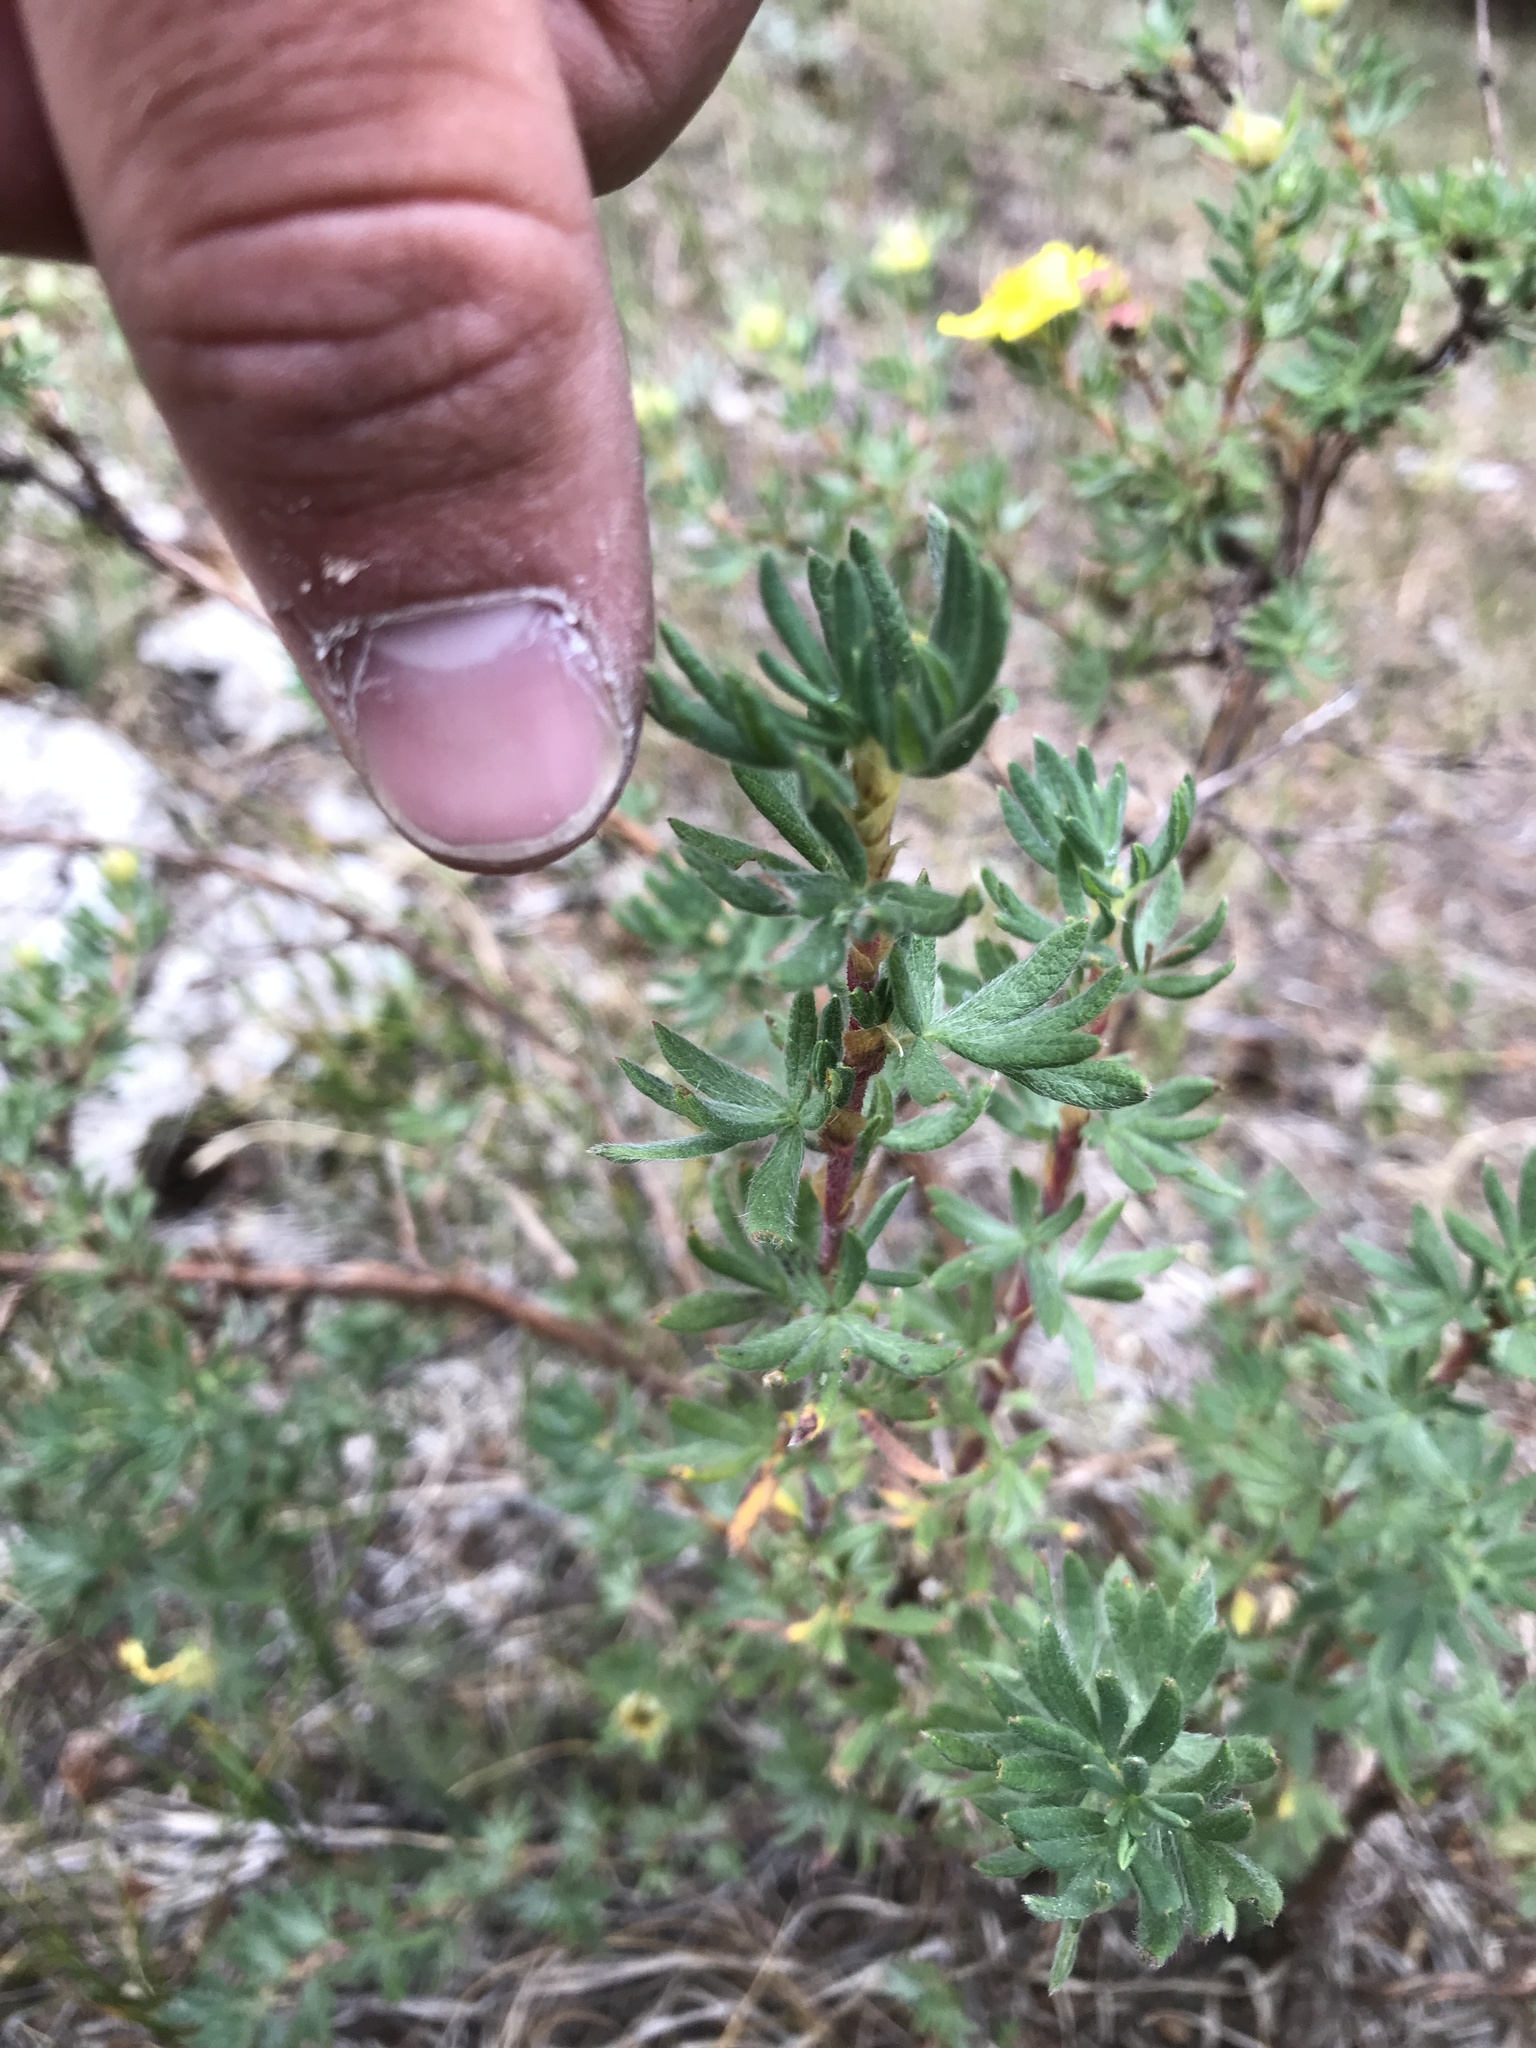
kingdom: Plantae
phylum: Tracheophyta
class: Magnoliopsida
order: Rosales
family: Rosaceae
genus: Dasiphora
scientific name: Dasiphora fruticosa
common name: Shrubby cinquefoil
